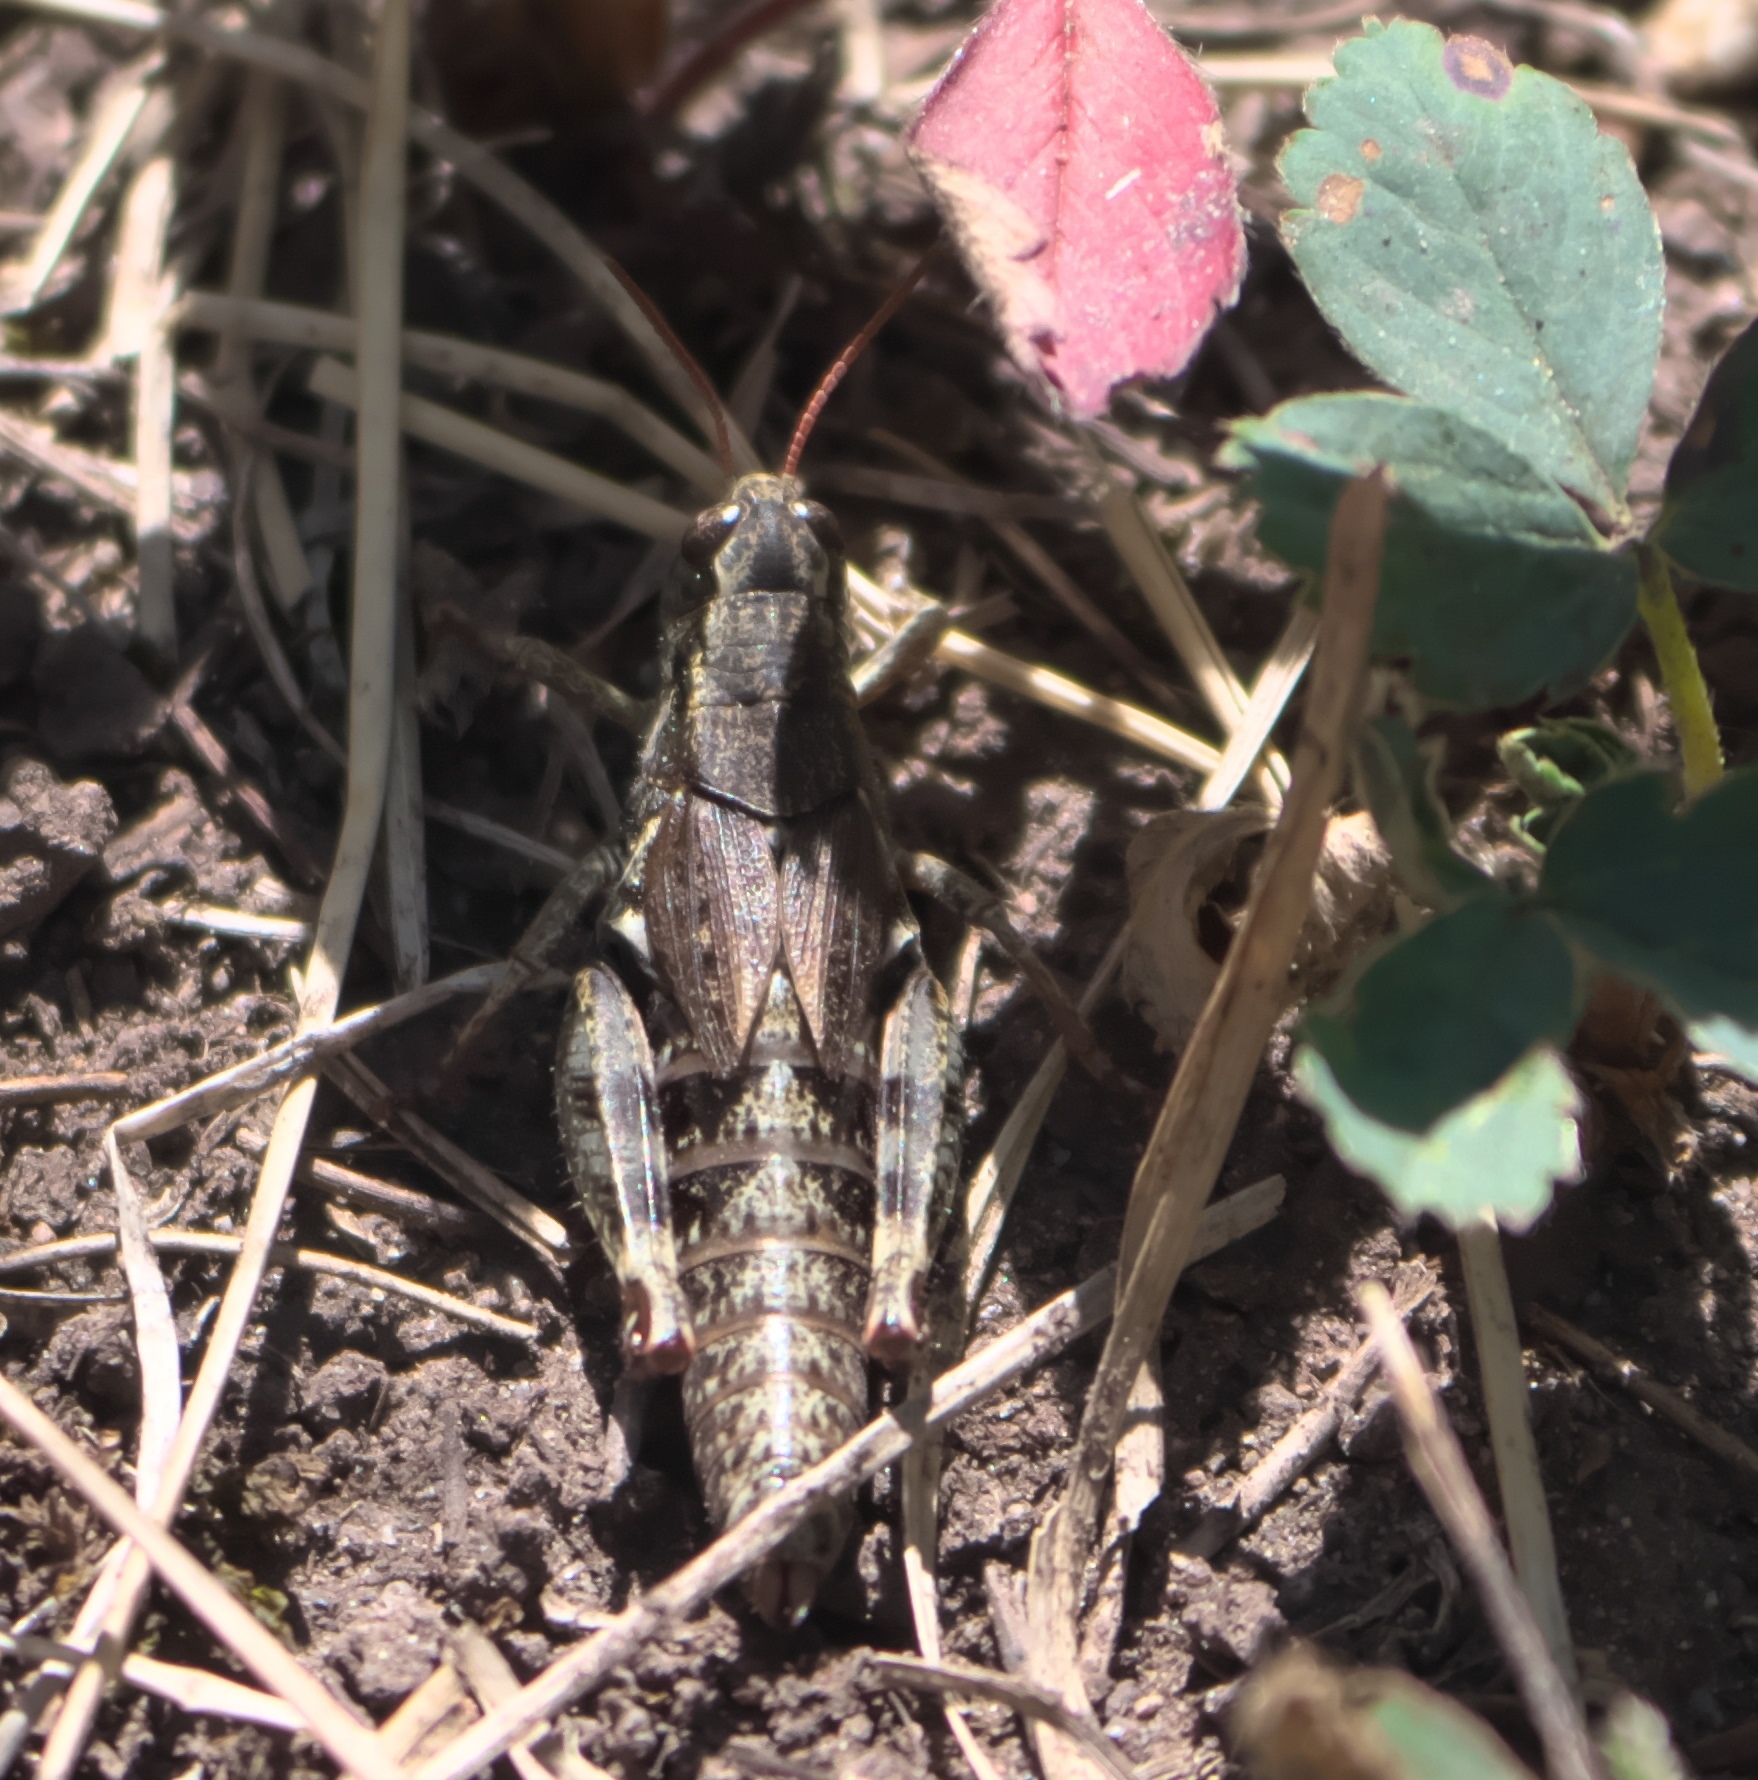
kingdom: Animalia
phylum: Arthropoda
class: Insecta
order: Orthoptera
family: Acrididae
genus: Melanoplus
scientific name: Melanoplus wai
